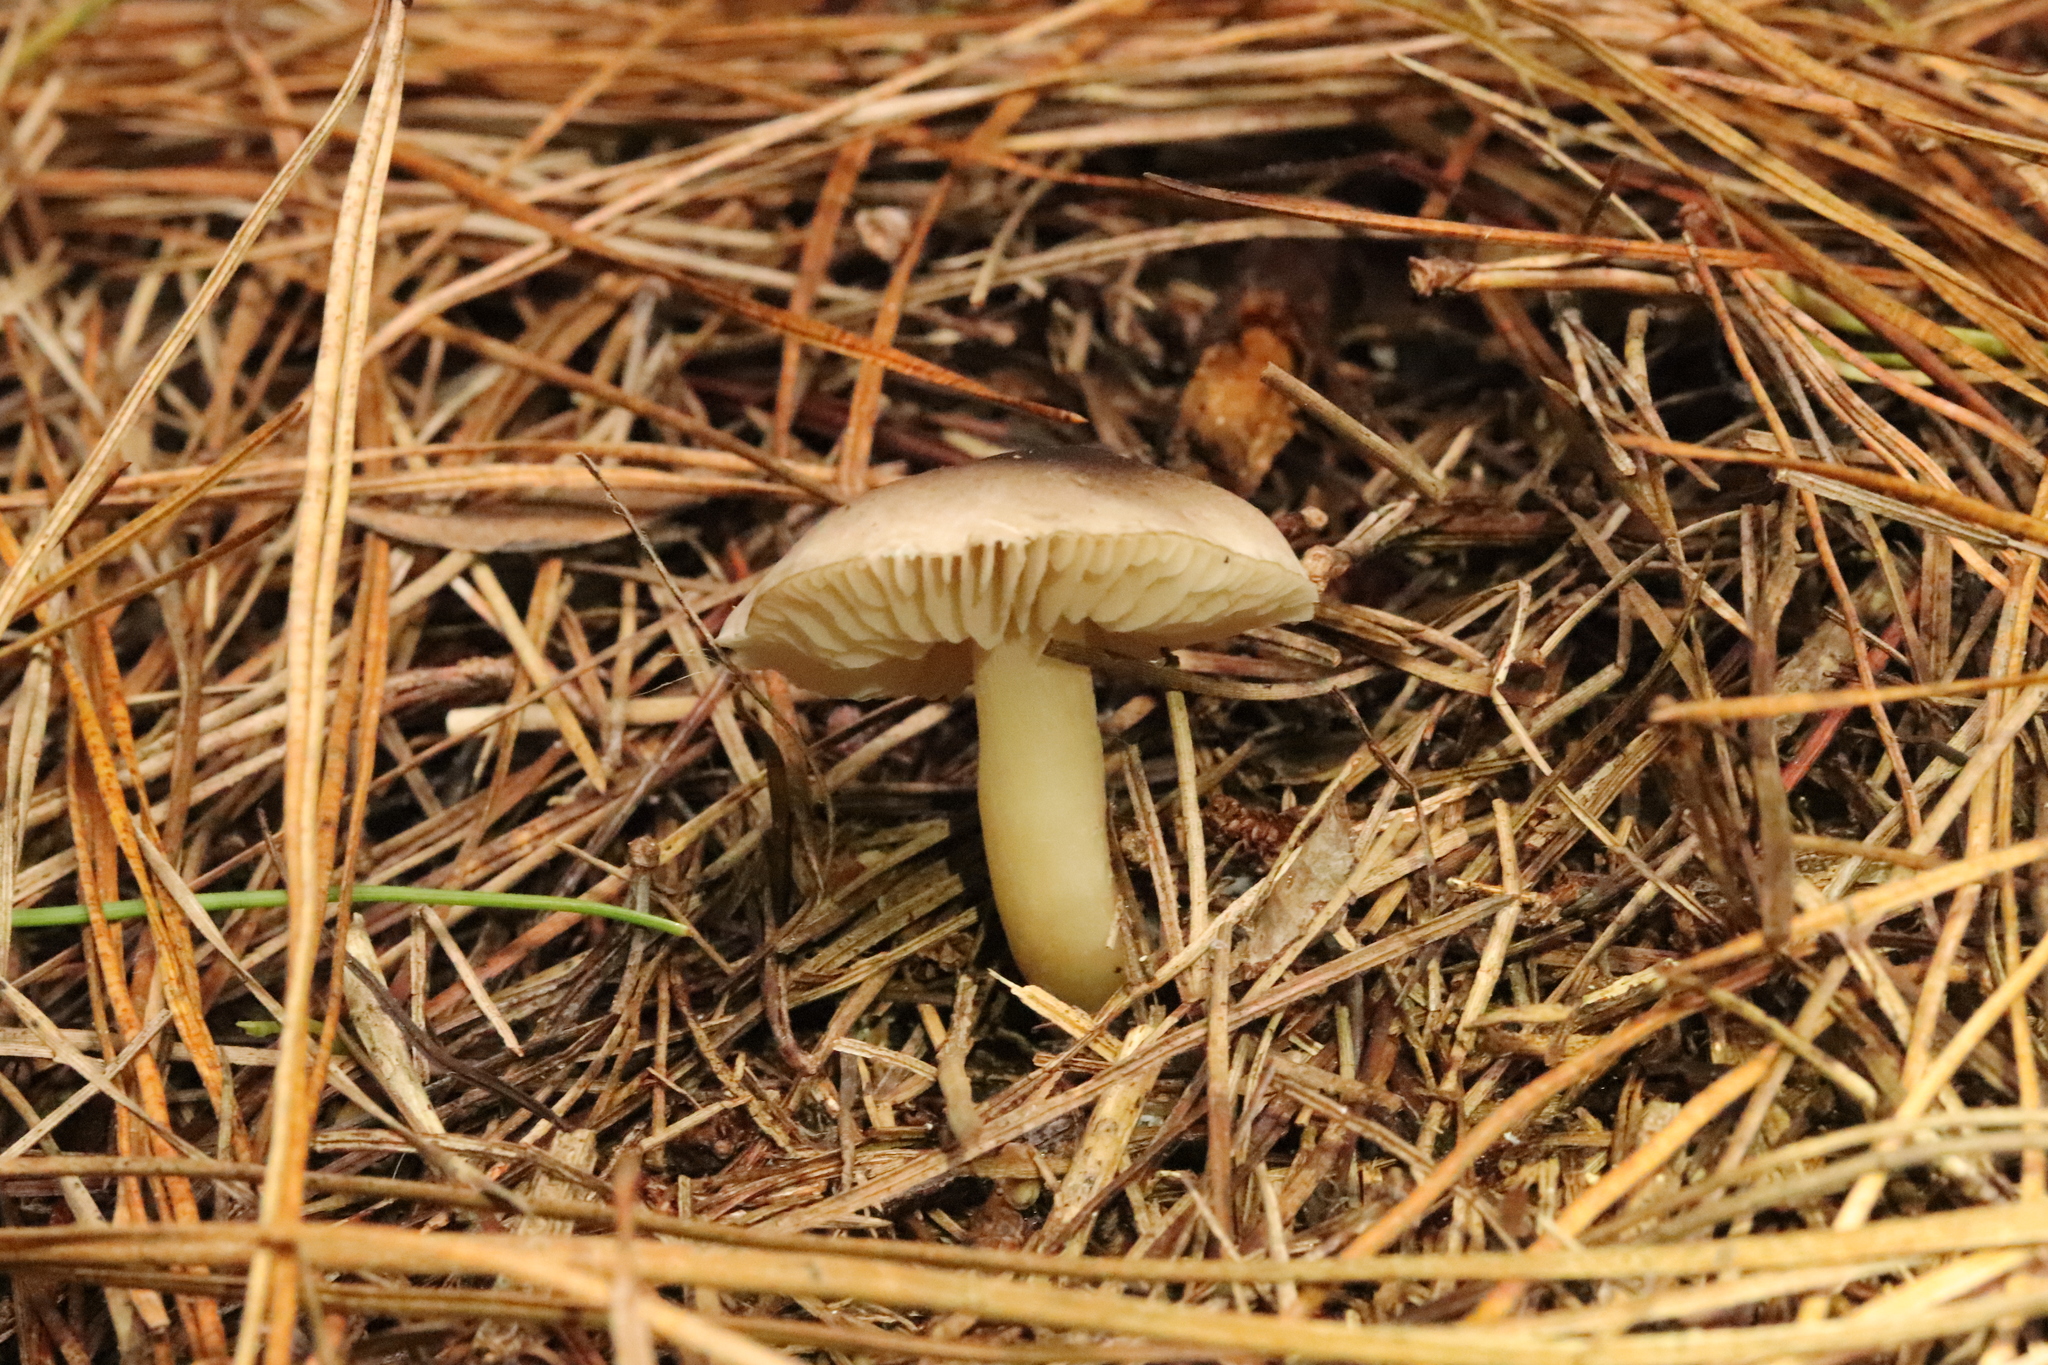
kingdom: Fungi
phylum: Basidiomycota
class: Agaricomycetes
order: Agaricales
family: Tricholomataceae
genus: Tricholoma
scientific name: Tricholoma terreum
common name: Grey knight
